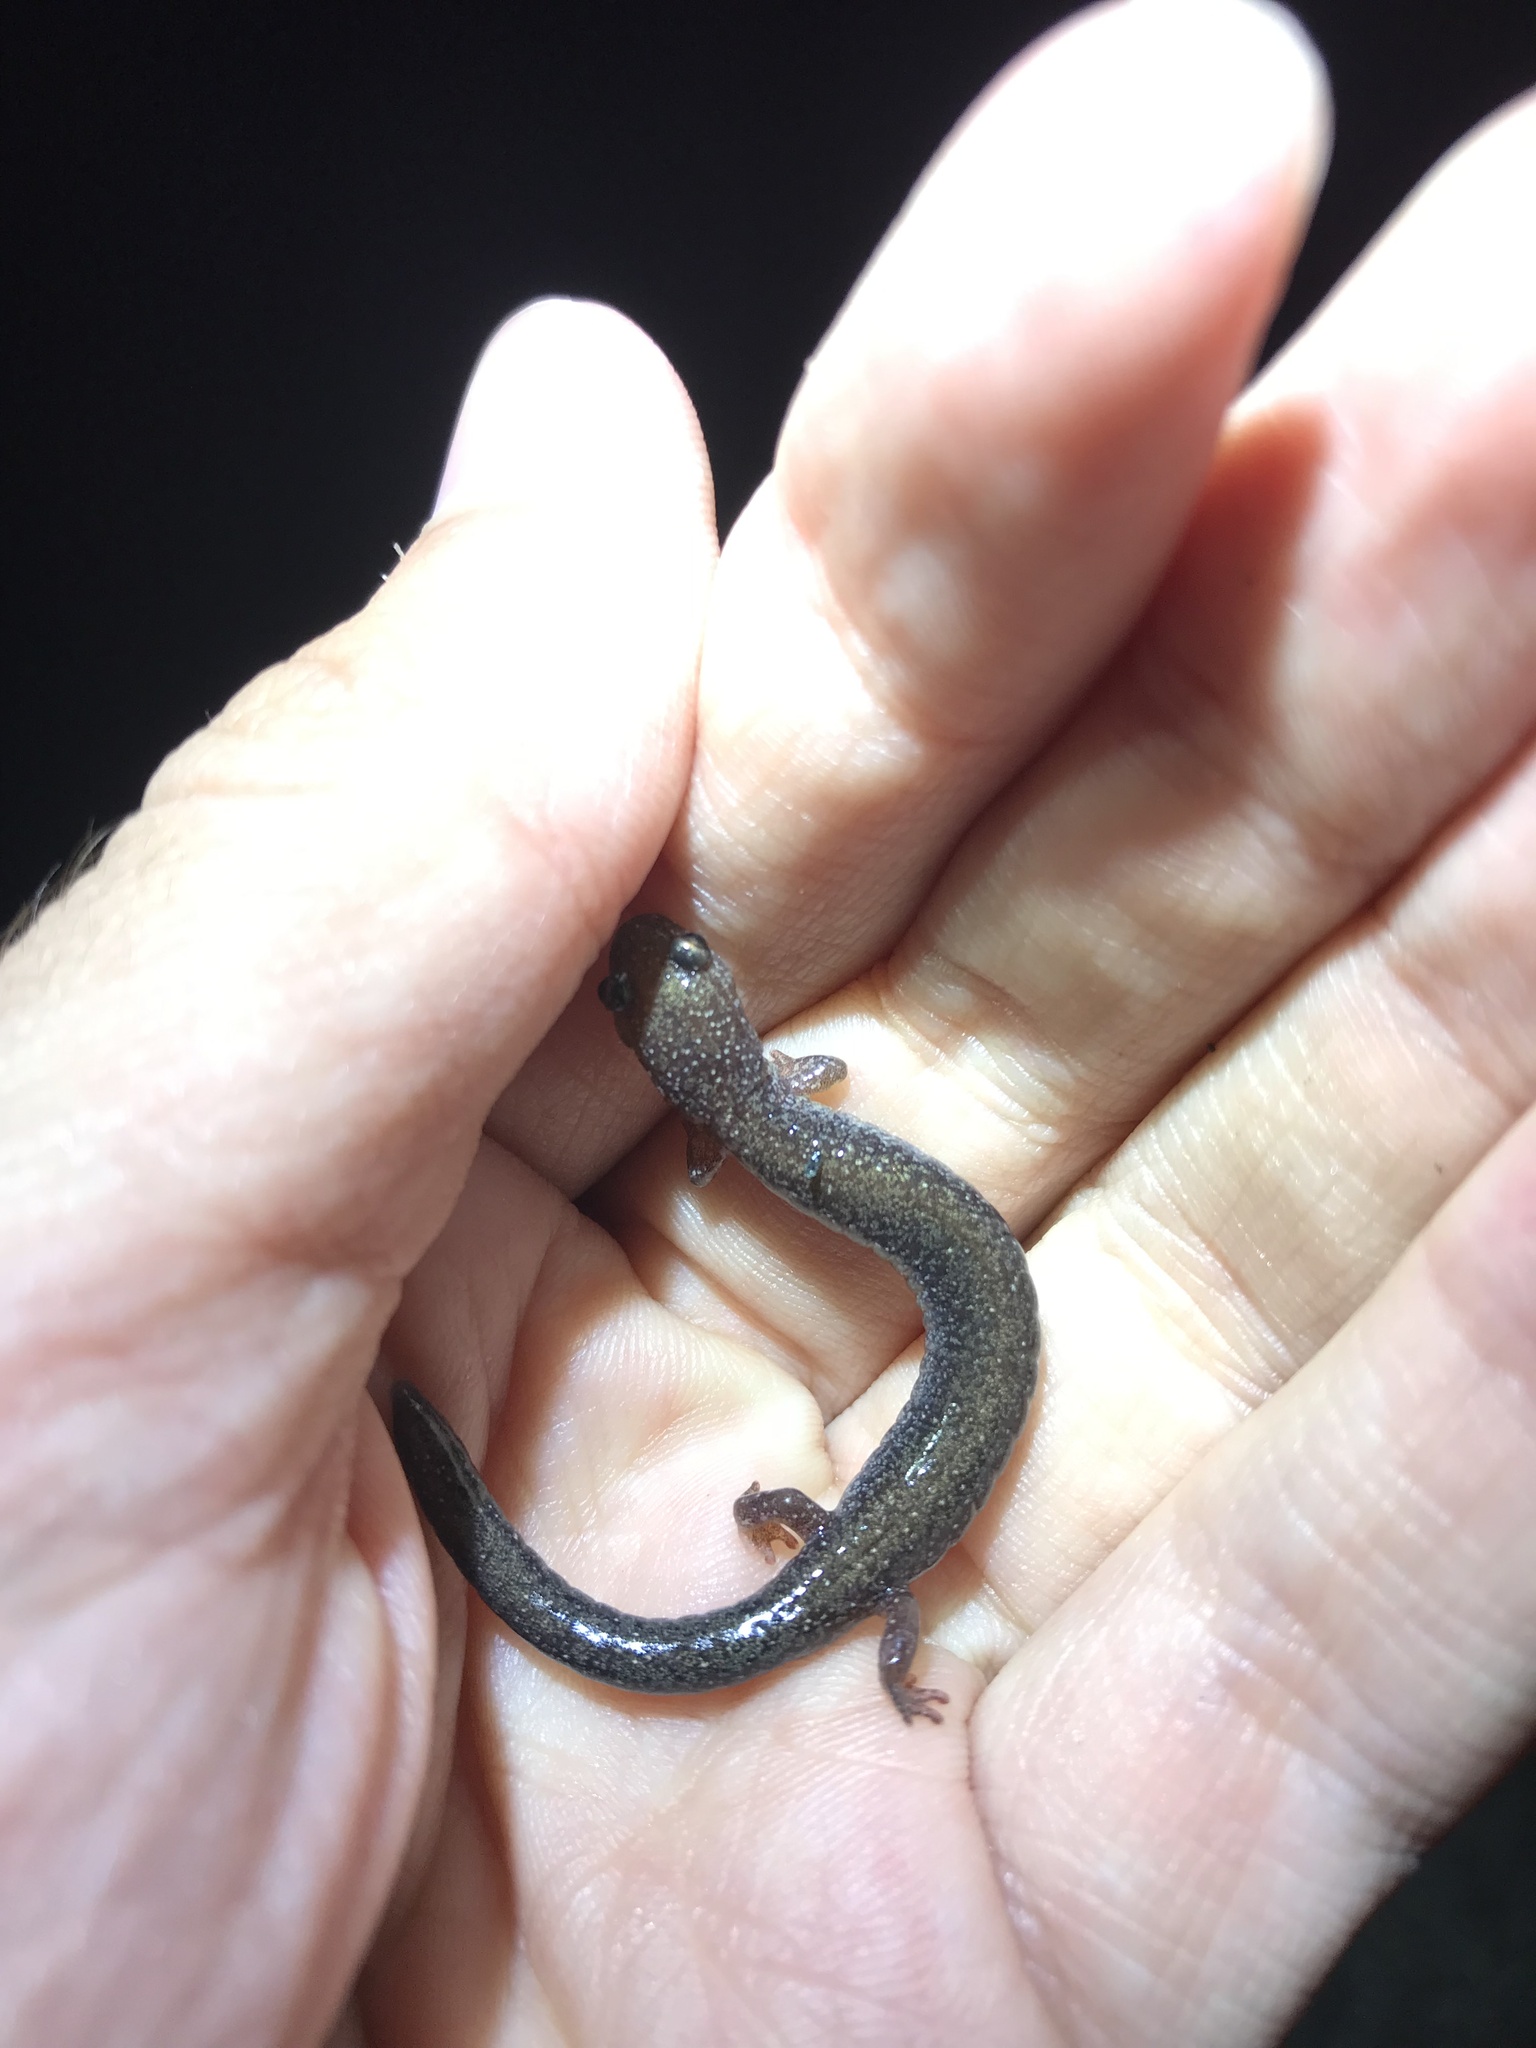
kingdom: Animalia
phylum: Chordata
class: Amphibia
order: Caudata
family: Plethodontidae
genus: Plethodon
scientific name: Plethodon cinereus
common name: Redback salamander
